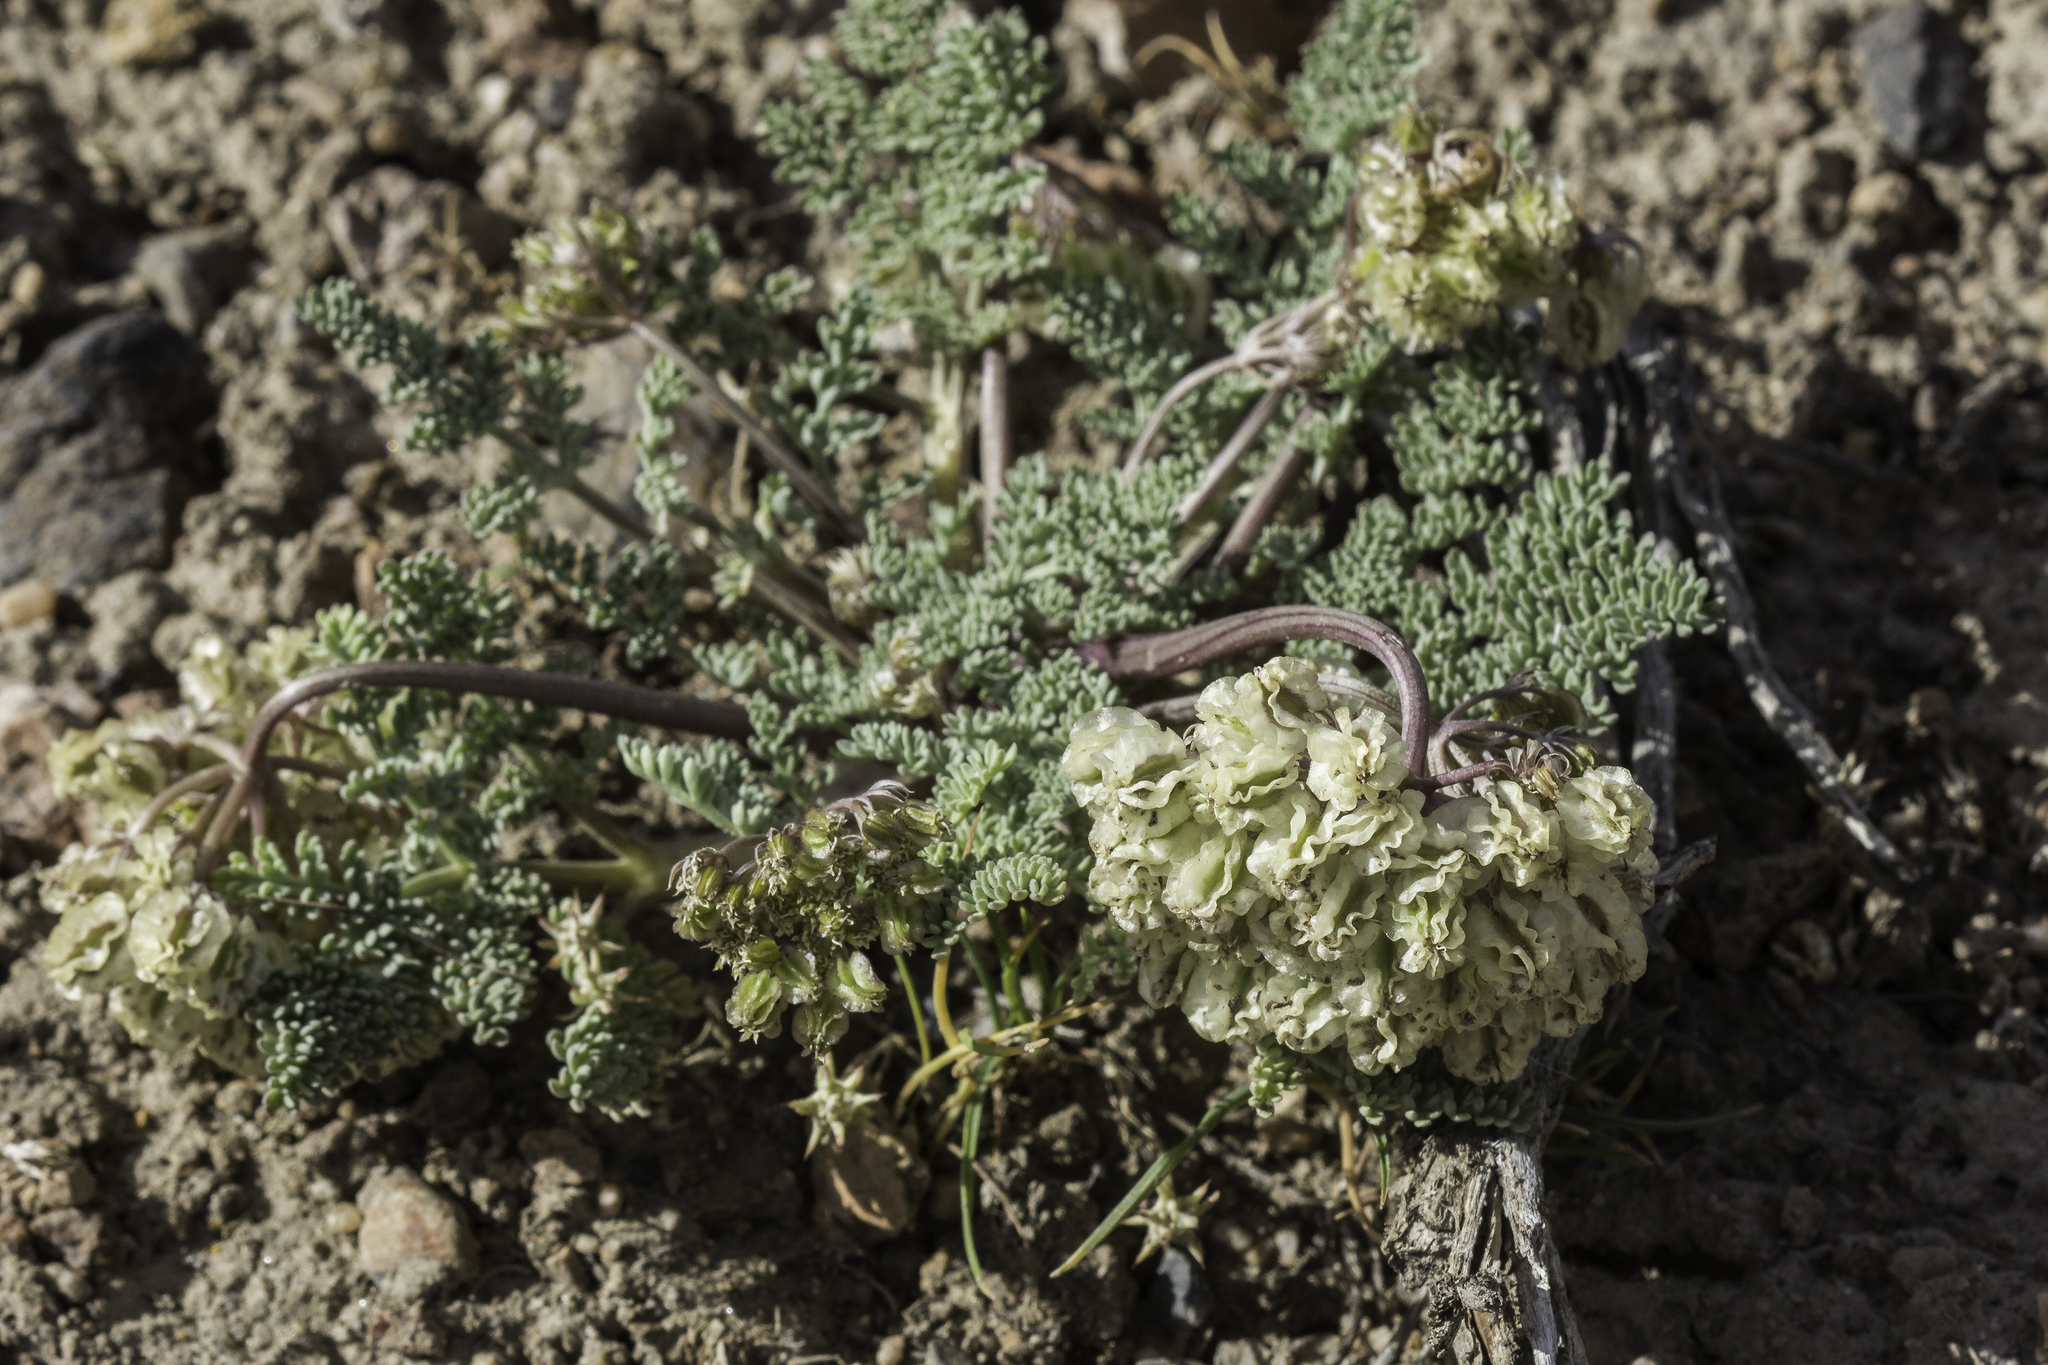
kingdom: Plantae
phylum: Tracheophyta
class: Magnoliopsida
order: Apiales
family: Apiaceae
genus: Aulospermum
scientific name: Aulospermum ibapense
